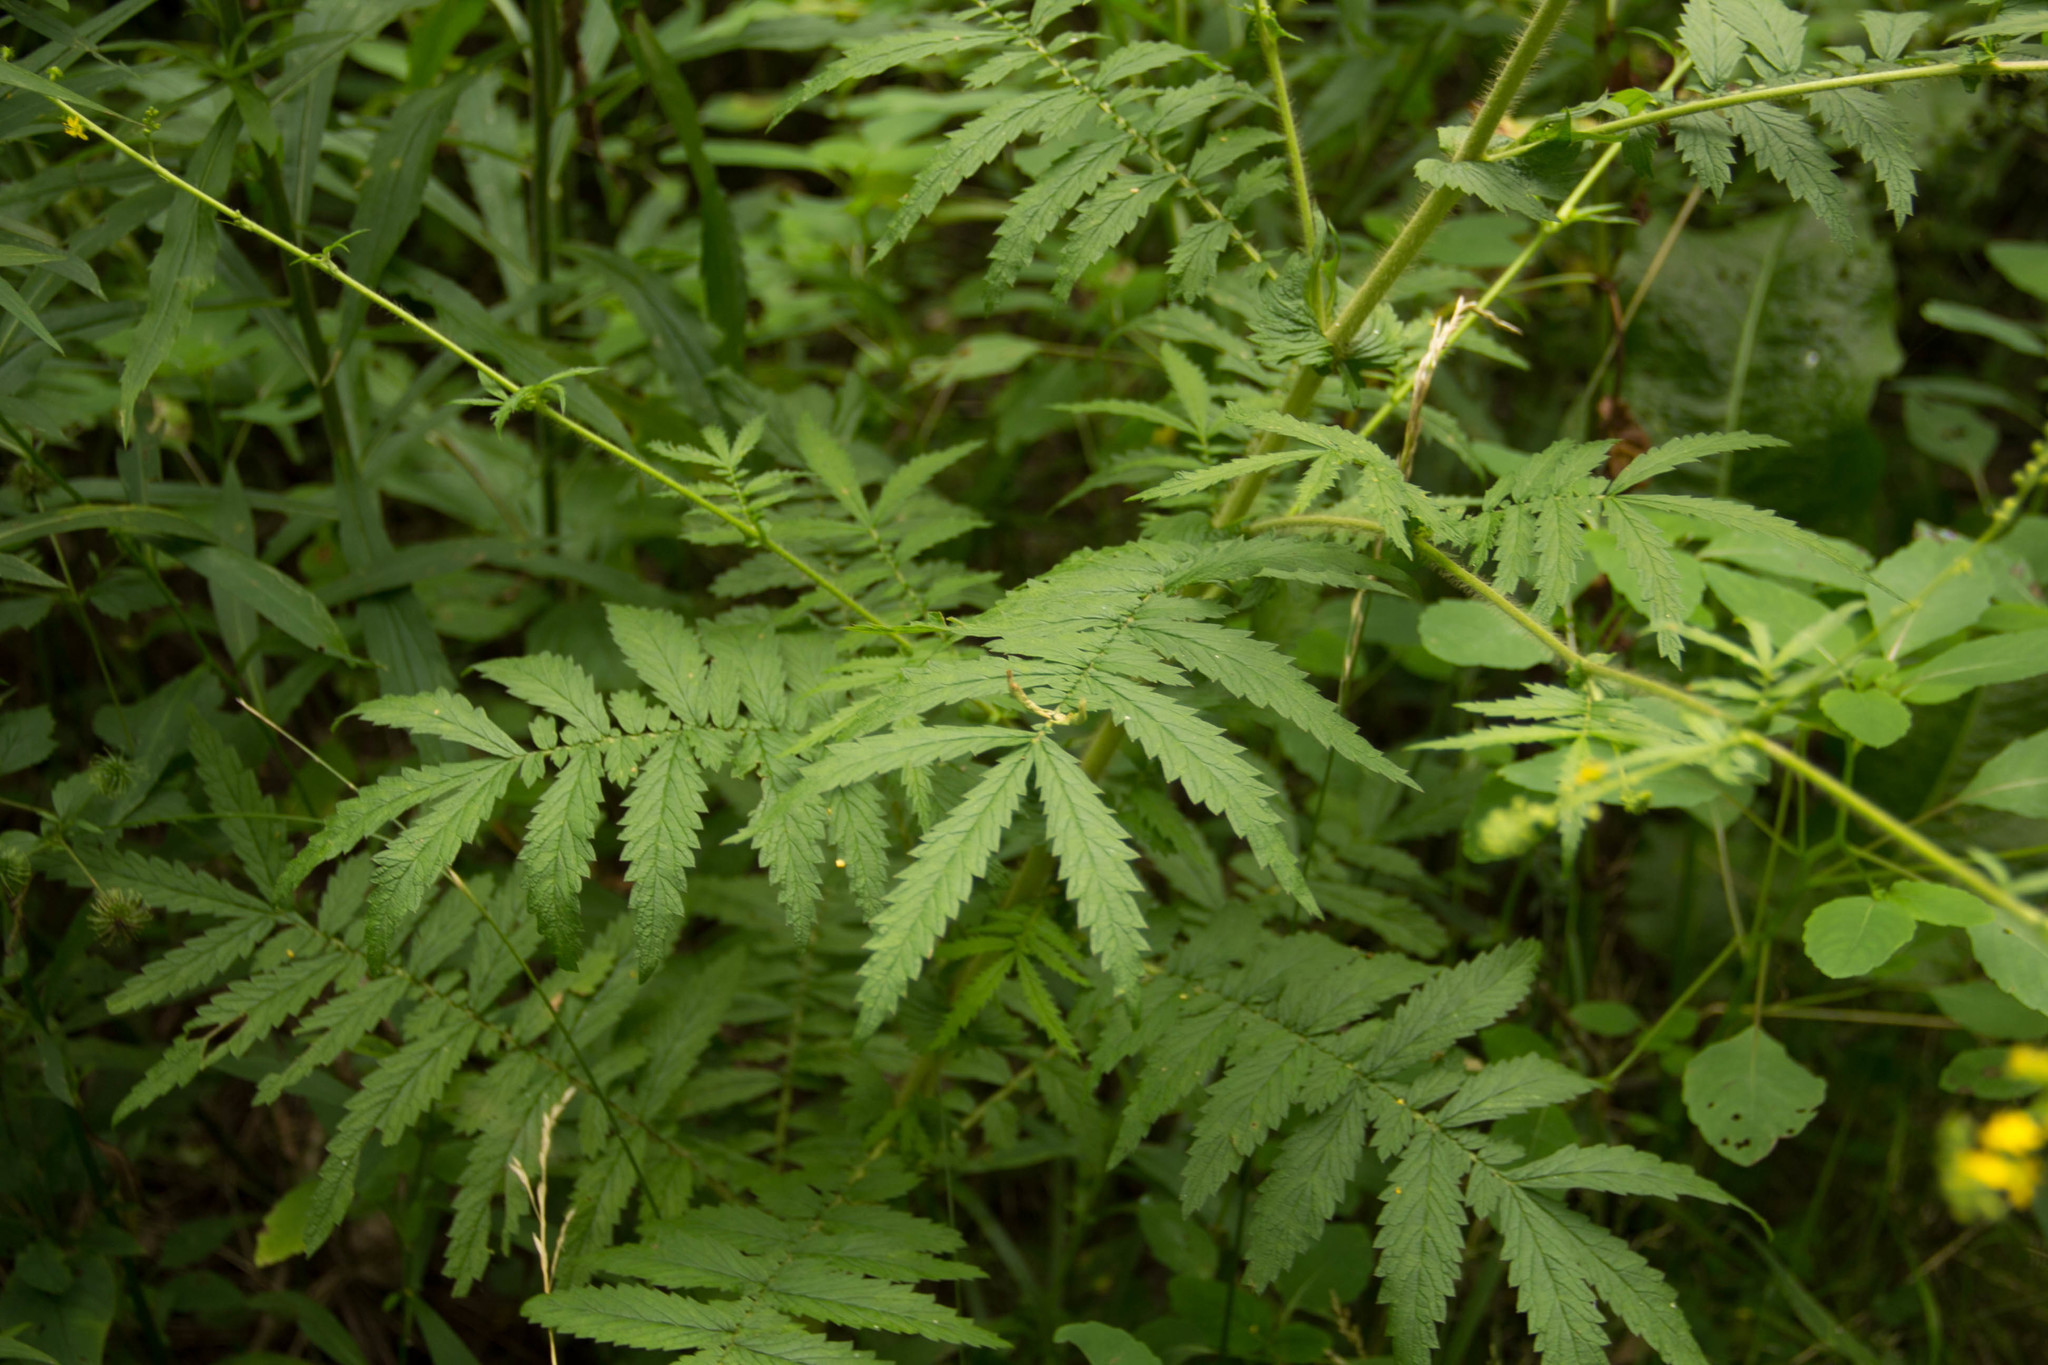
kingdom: Plantae
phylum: Tracheophyta
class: Magnoliopsida
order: Rosales
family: Rosaceae
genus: Agrimonia
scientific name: Agrimonia parviflora
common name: Harvest-lice
